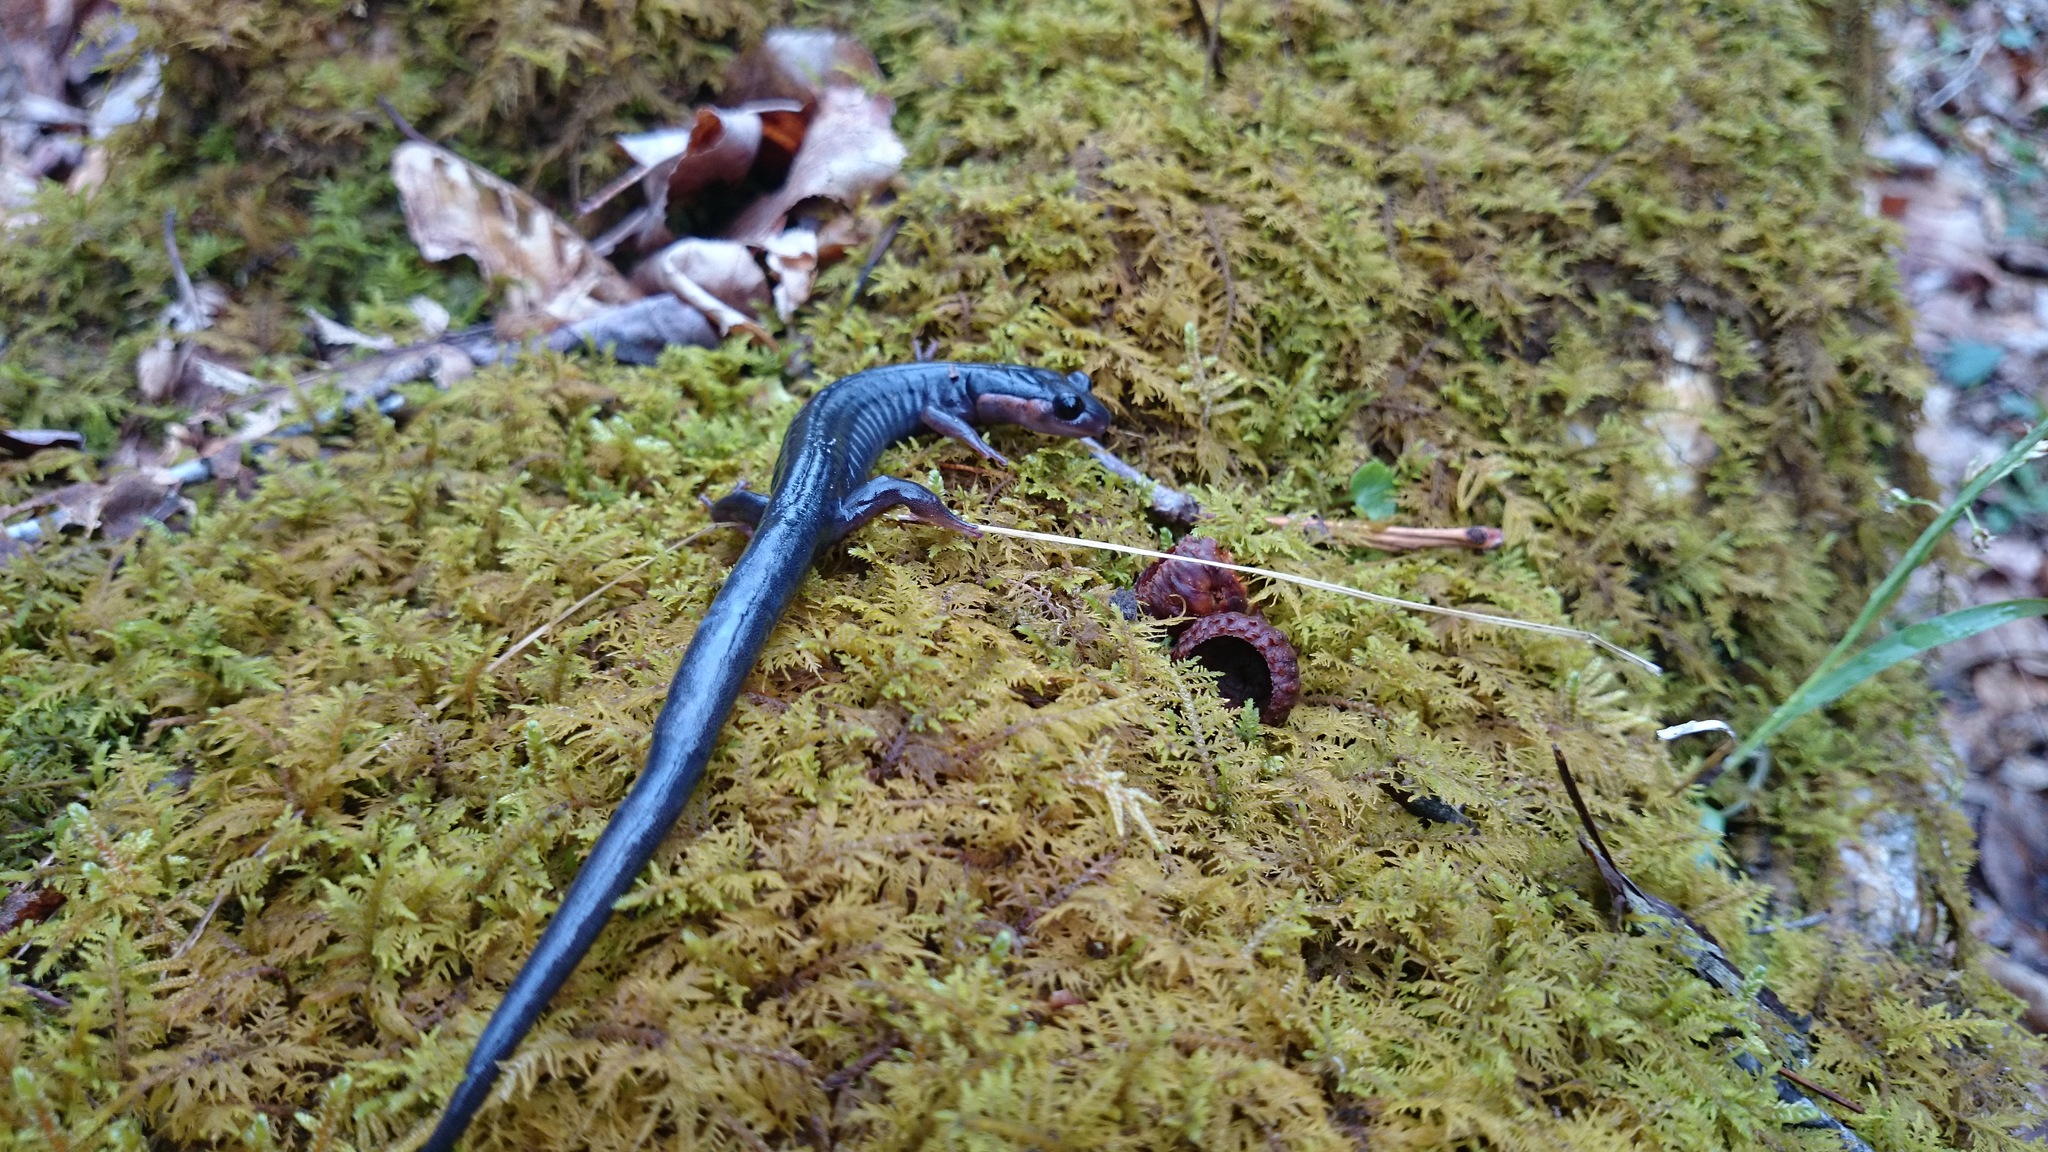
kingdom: Animalia
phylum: Chordata
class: Amphibia
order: Caudata
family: Plethodontidae
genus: Plethodon
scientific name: Plethodon jordani
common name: Red-cheeked salamander
